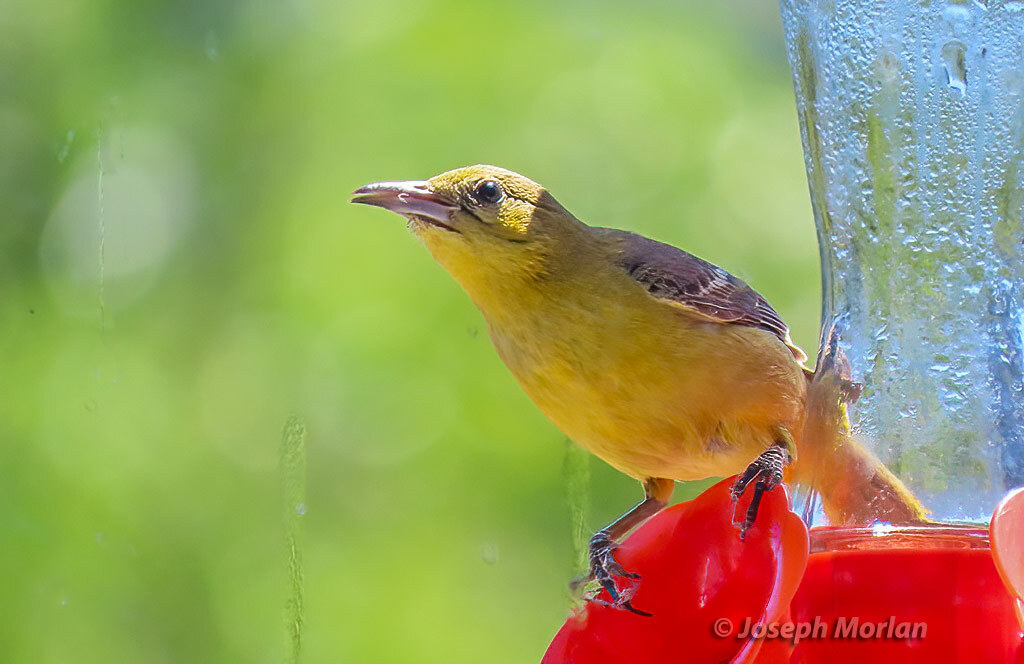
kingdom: Animalia
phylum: Chordata
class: Aves
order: Passeriformes
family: Icteridae
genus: Icterus
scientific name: Icterus cucullatus
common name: Hooded oriole
